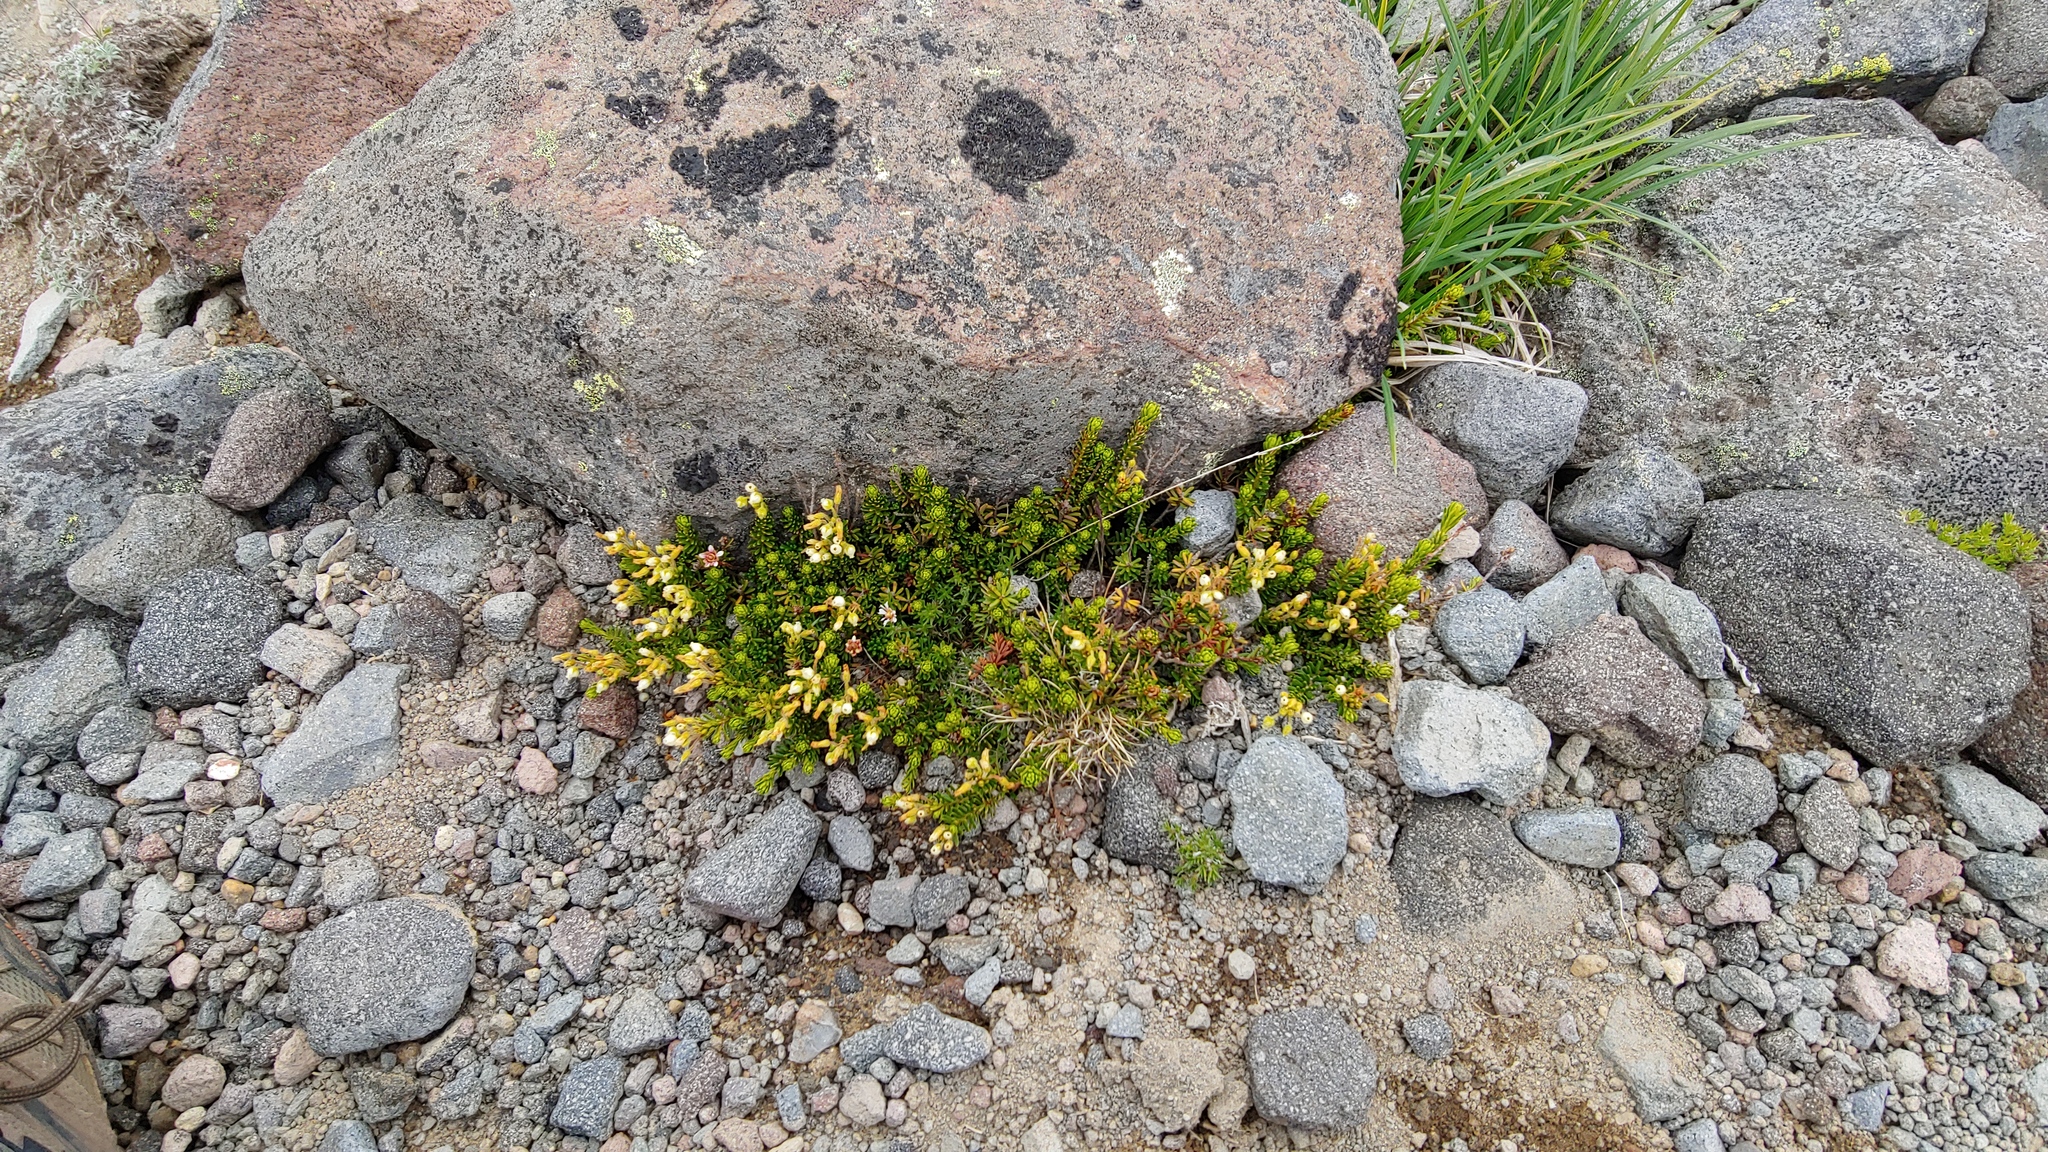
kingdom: Plantae
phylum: Tracheophyta
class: Magnoliopsida
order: Ericales
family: Ericaceae
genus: Phyllodoce
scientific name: Phyllodoce glanduliflora
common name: Cream mountain heather
